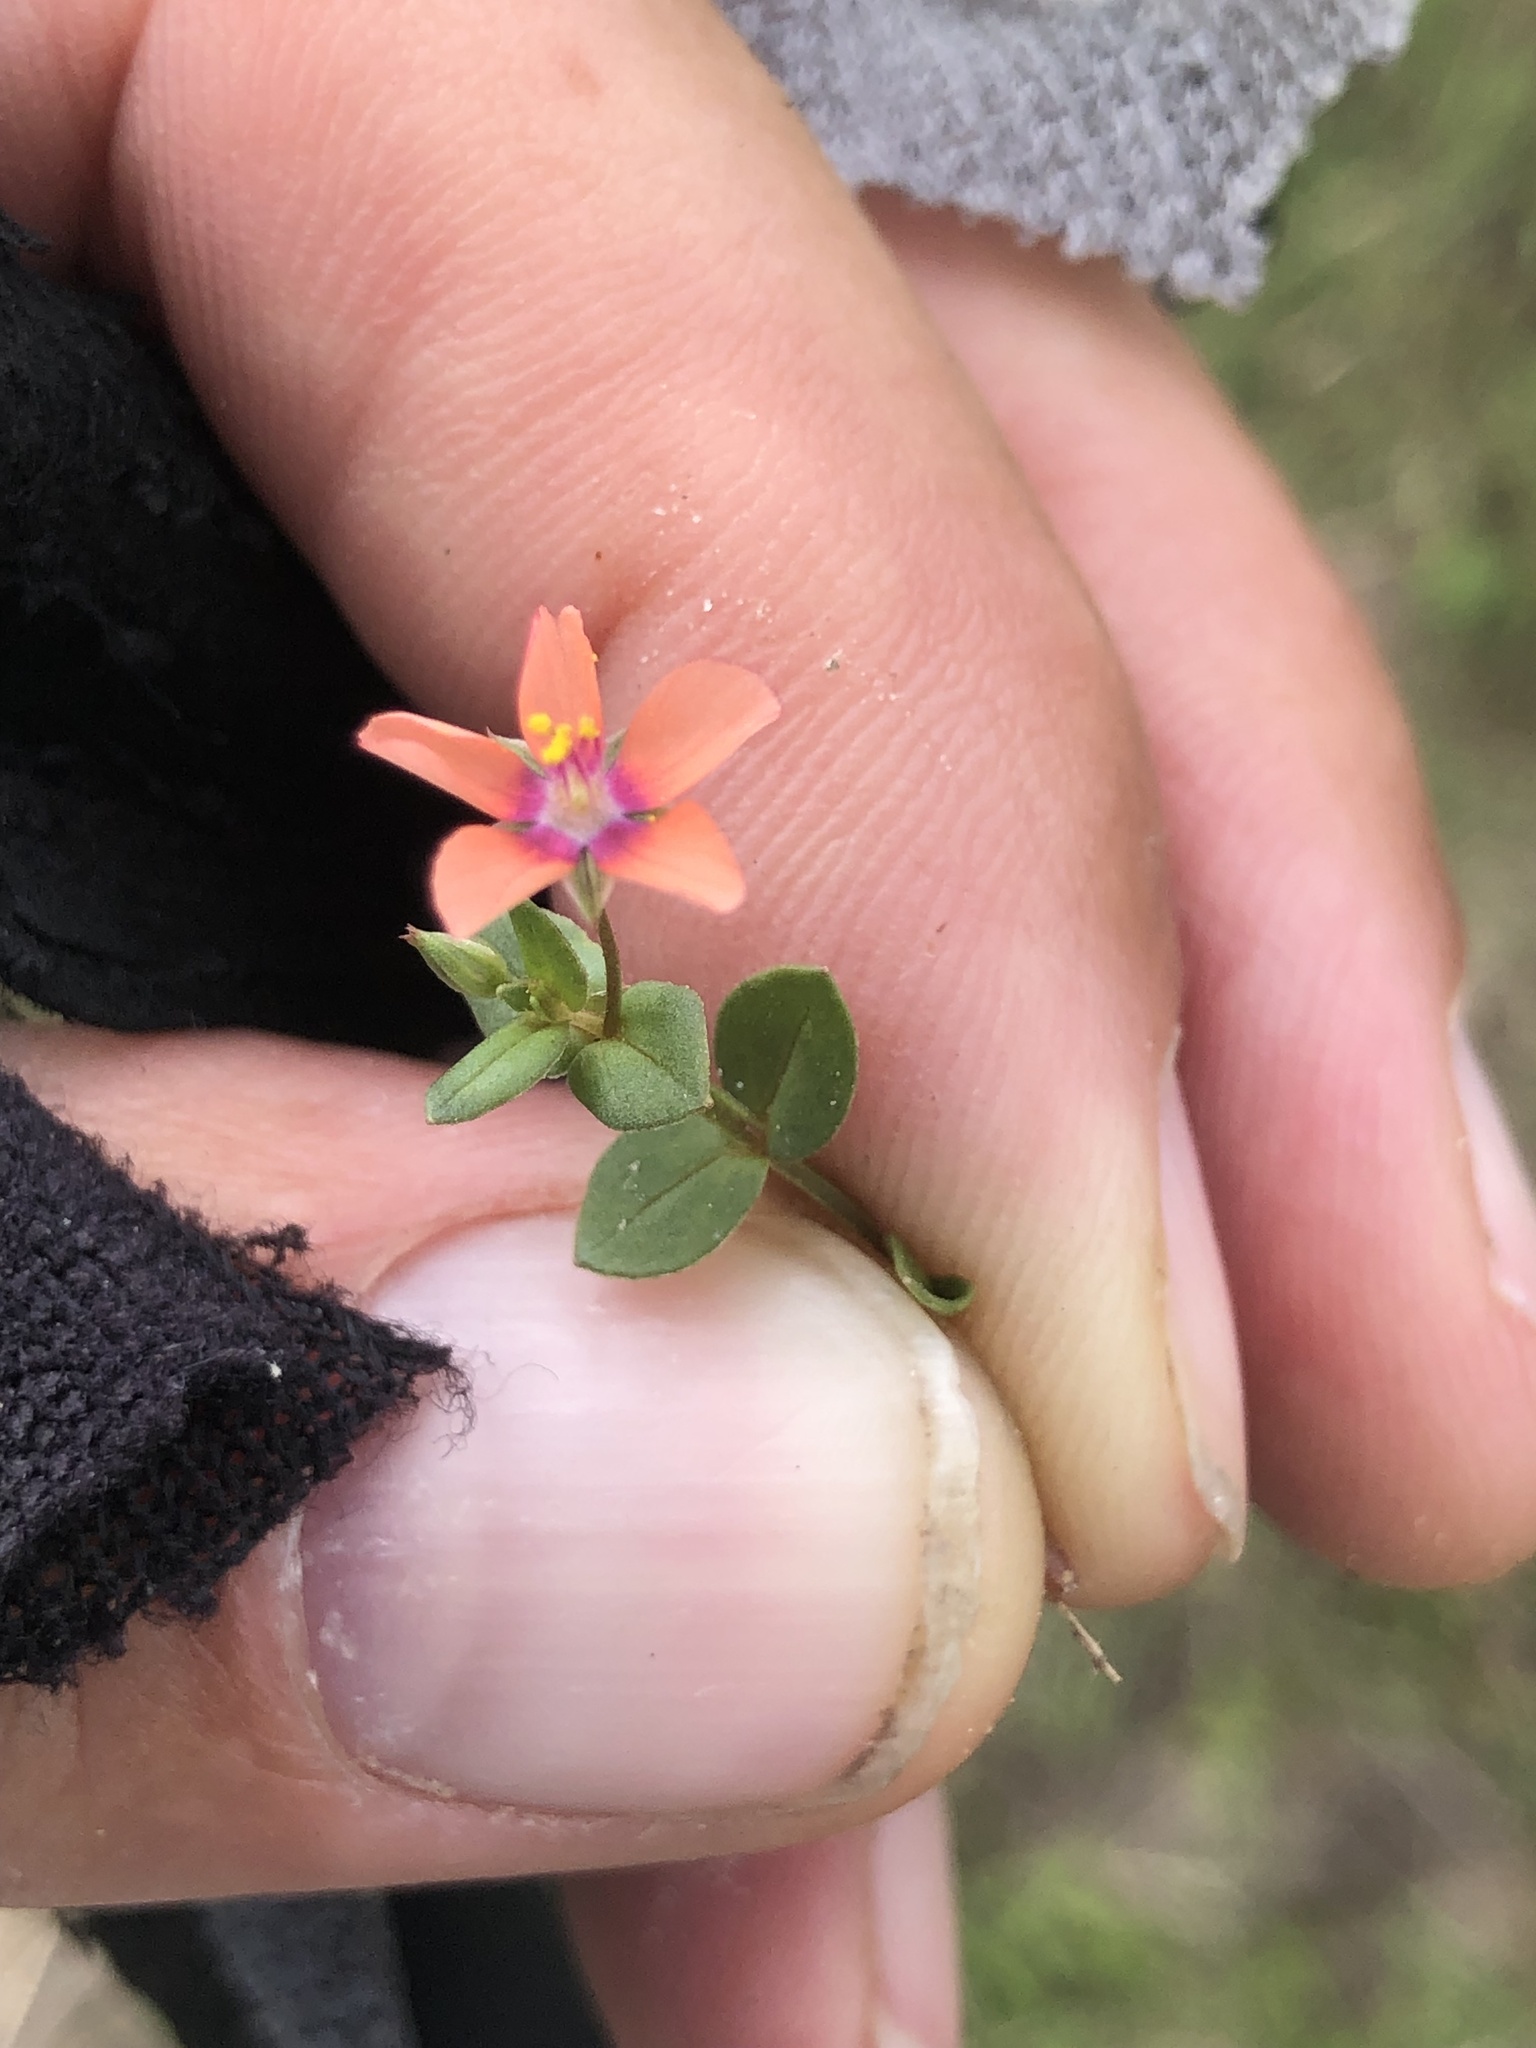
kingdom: Plantae
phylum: Tracheophyta
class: Magnoliopsida
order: Ericales
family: Primulaceae
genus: Lysimachia
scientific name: Lysimachia arvensis
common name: Scarlet pimpernel
